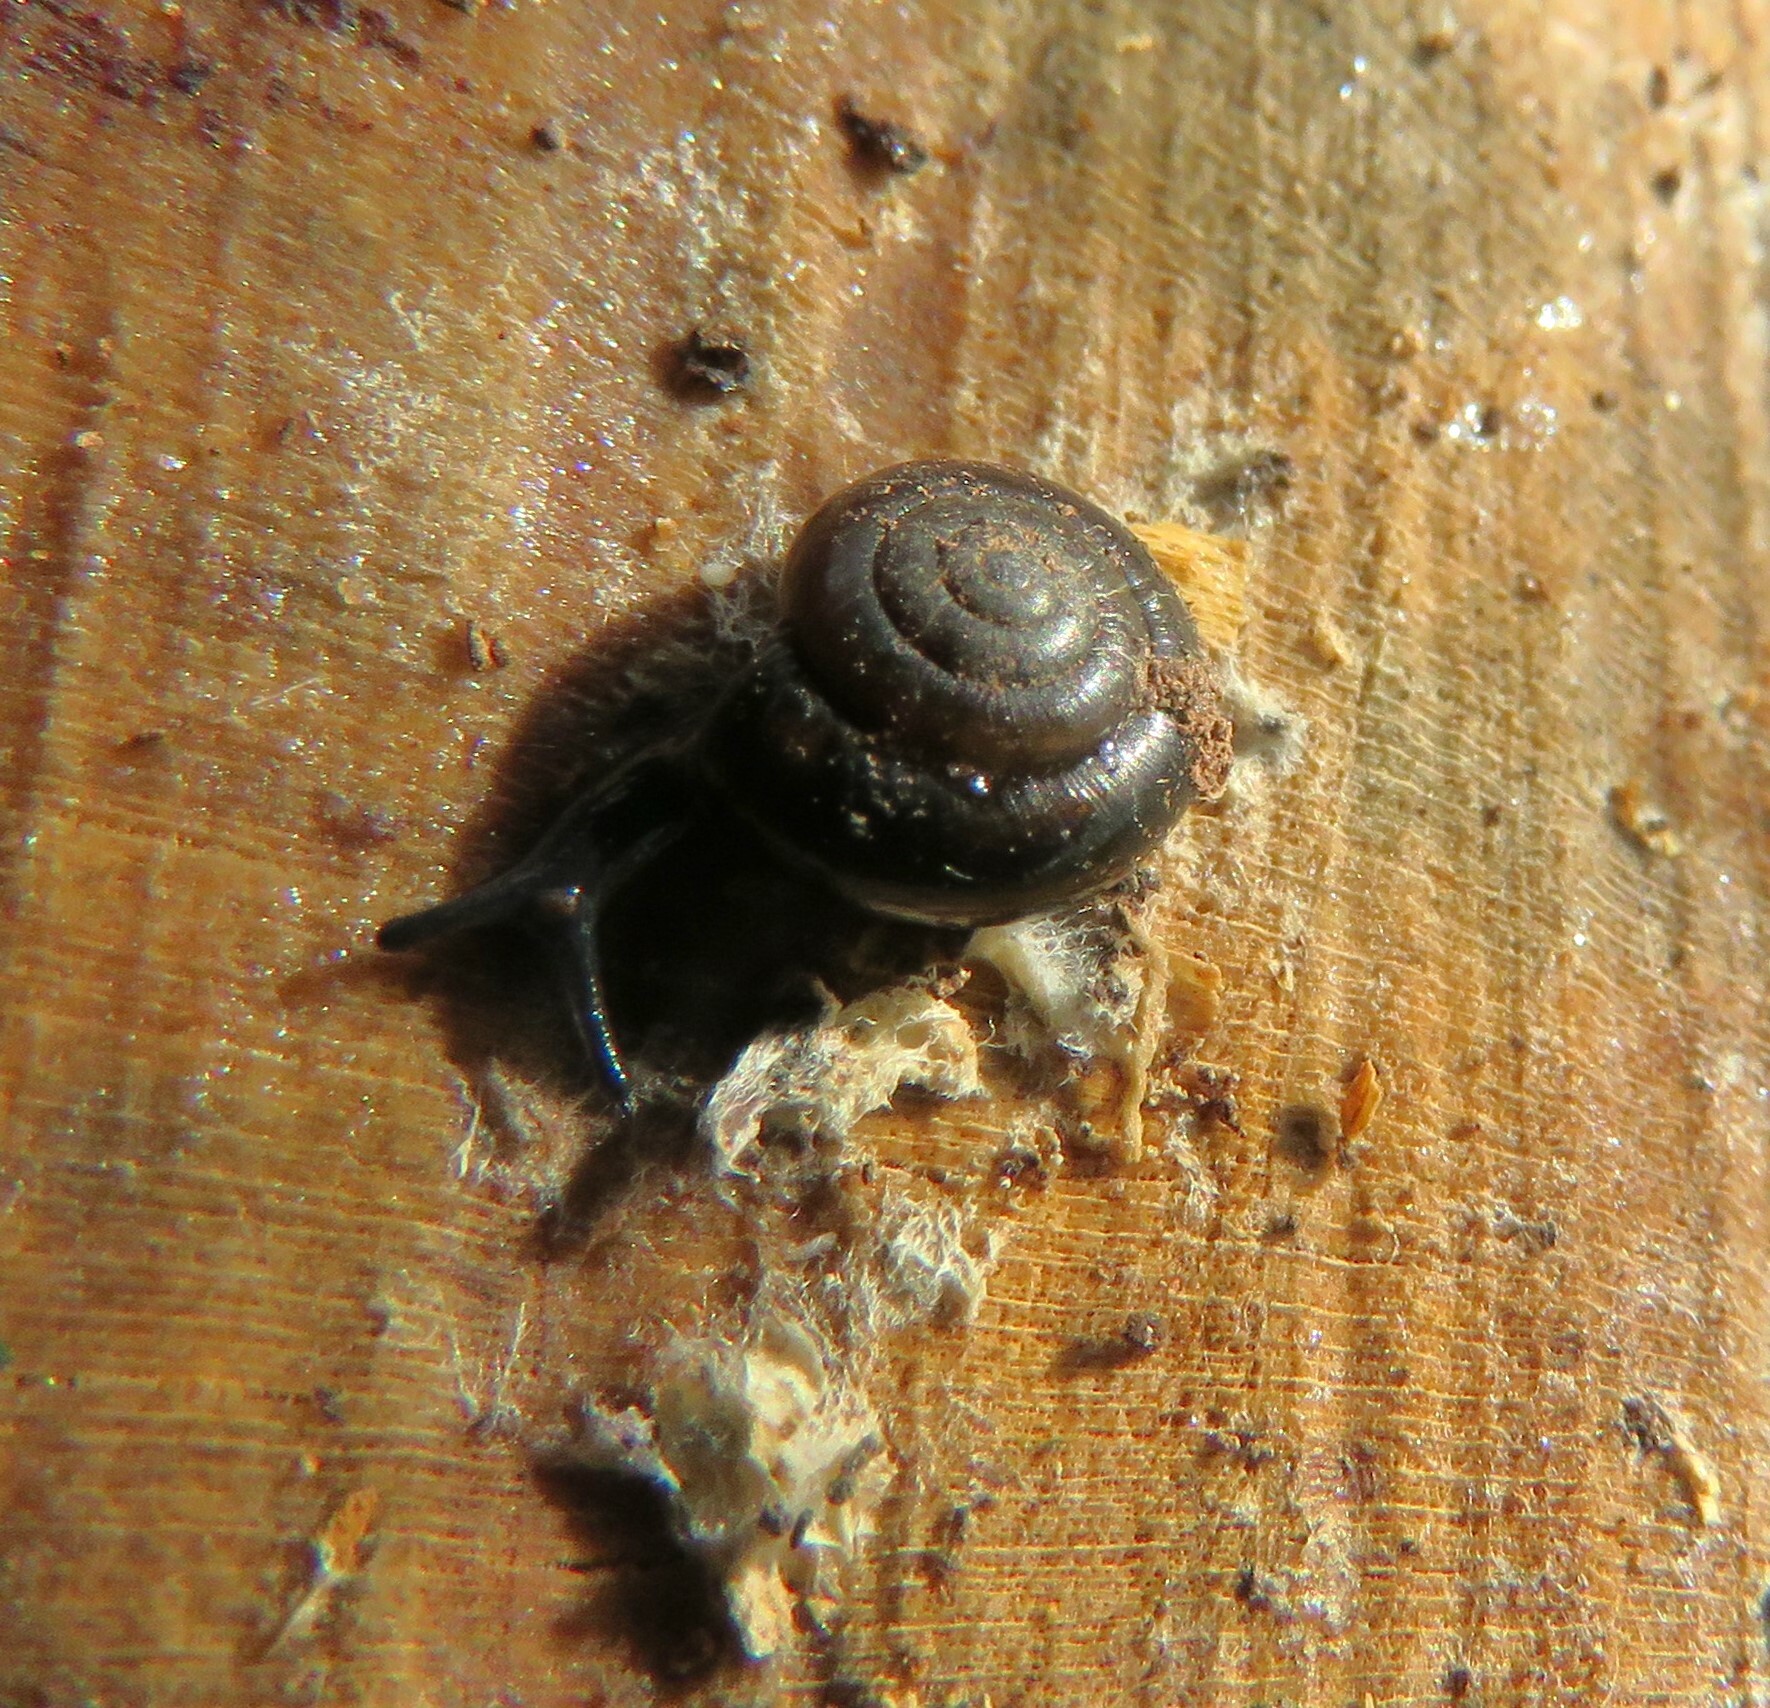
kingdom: Animalia
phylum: Mollusca
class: Gastropoda
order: Stylommatophora
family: Gastrodontidae
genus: Zonitoides
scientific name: Zonitoides nitidus
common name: Shiny glass snail
